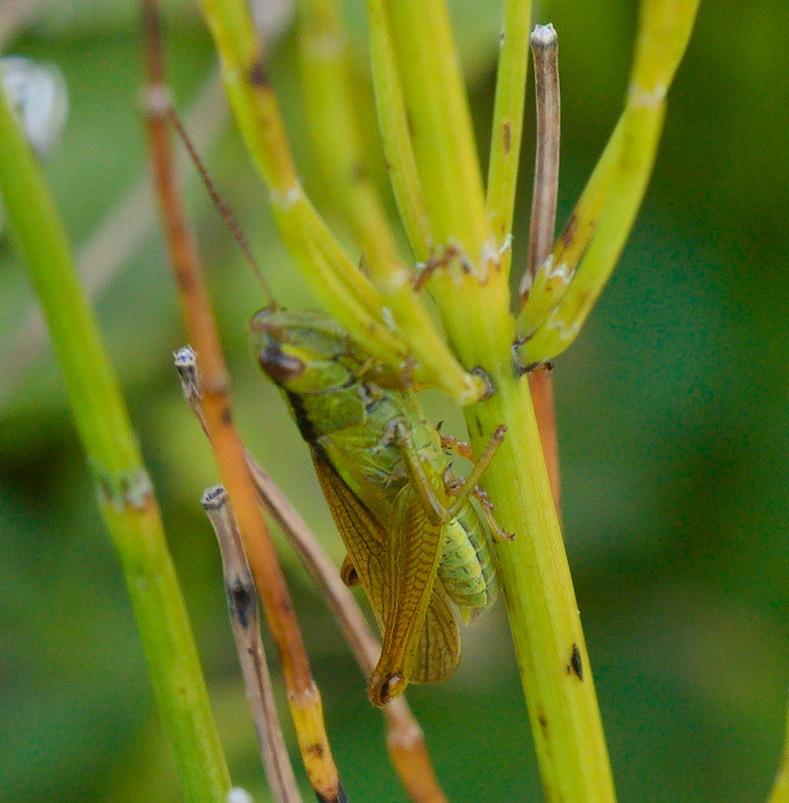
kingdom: Animalia
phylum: Arthropoda
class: Insecta
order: Orthoptera
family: Acrididae
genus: Mecostethus
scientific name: Mecostethus parapleurus
